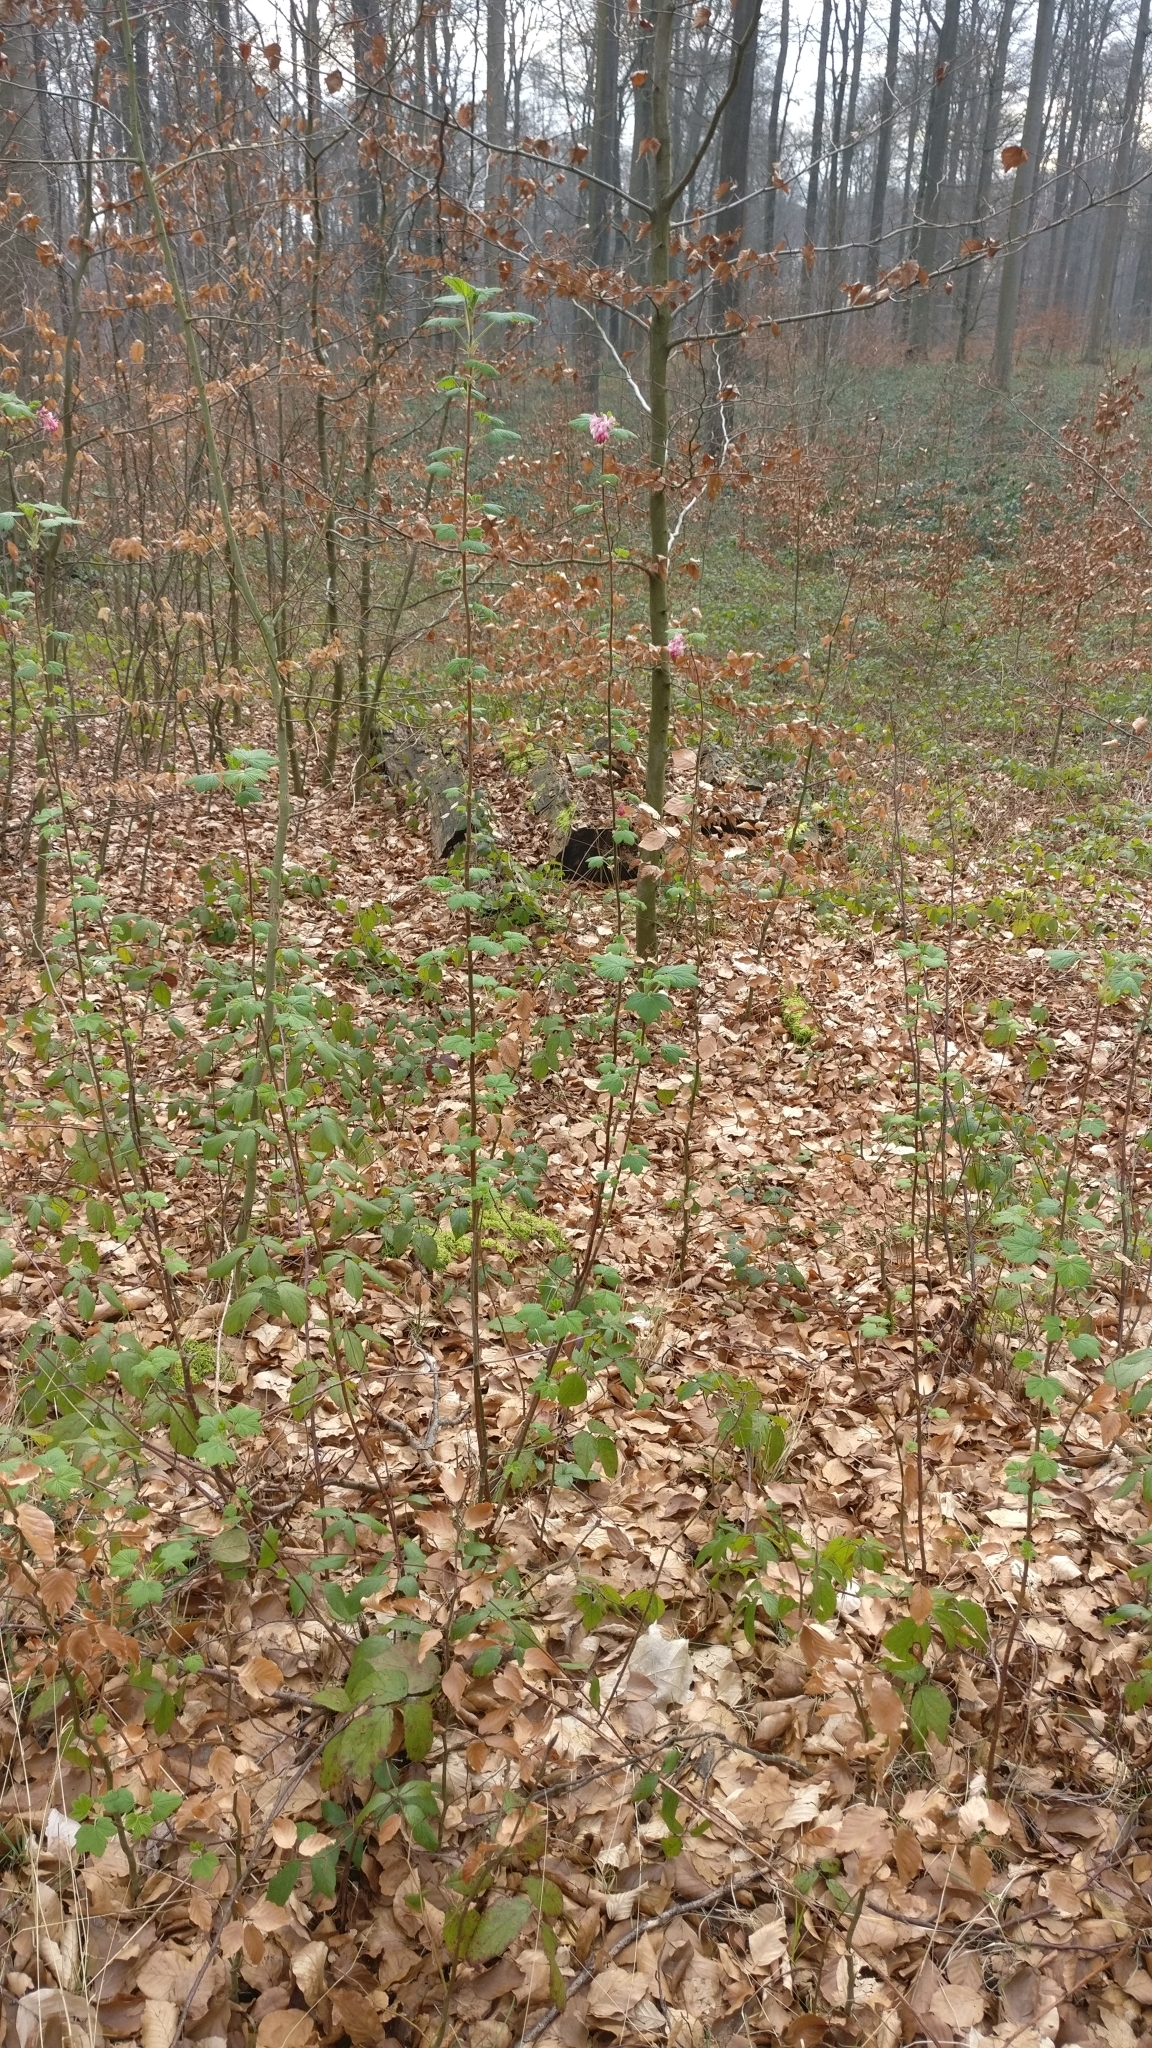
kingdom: Plantae
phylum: Tracheophyta
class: Magnoliopsida
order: Saxifragales
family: Grossulariaceae
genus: Ribes
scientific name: Ribes sanguineum
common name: Flowering currant
